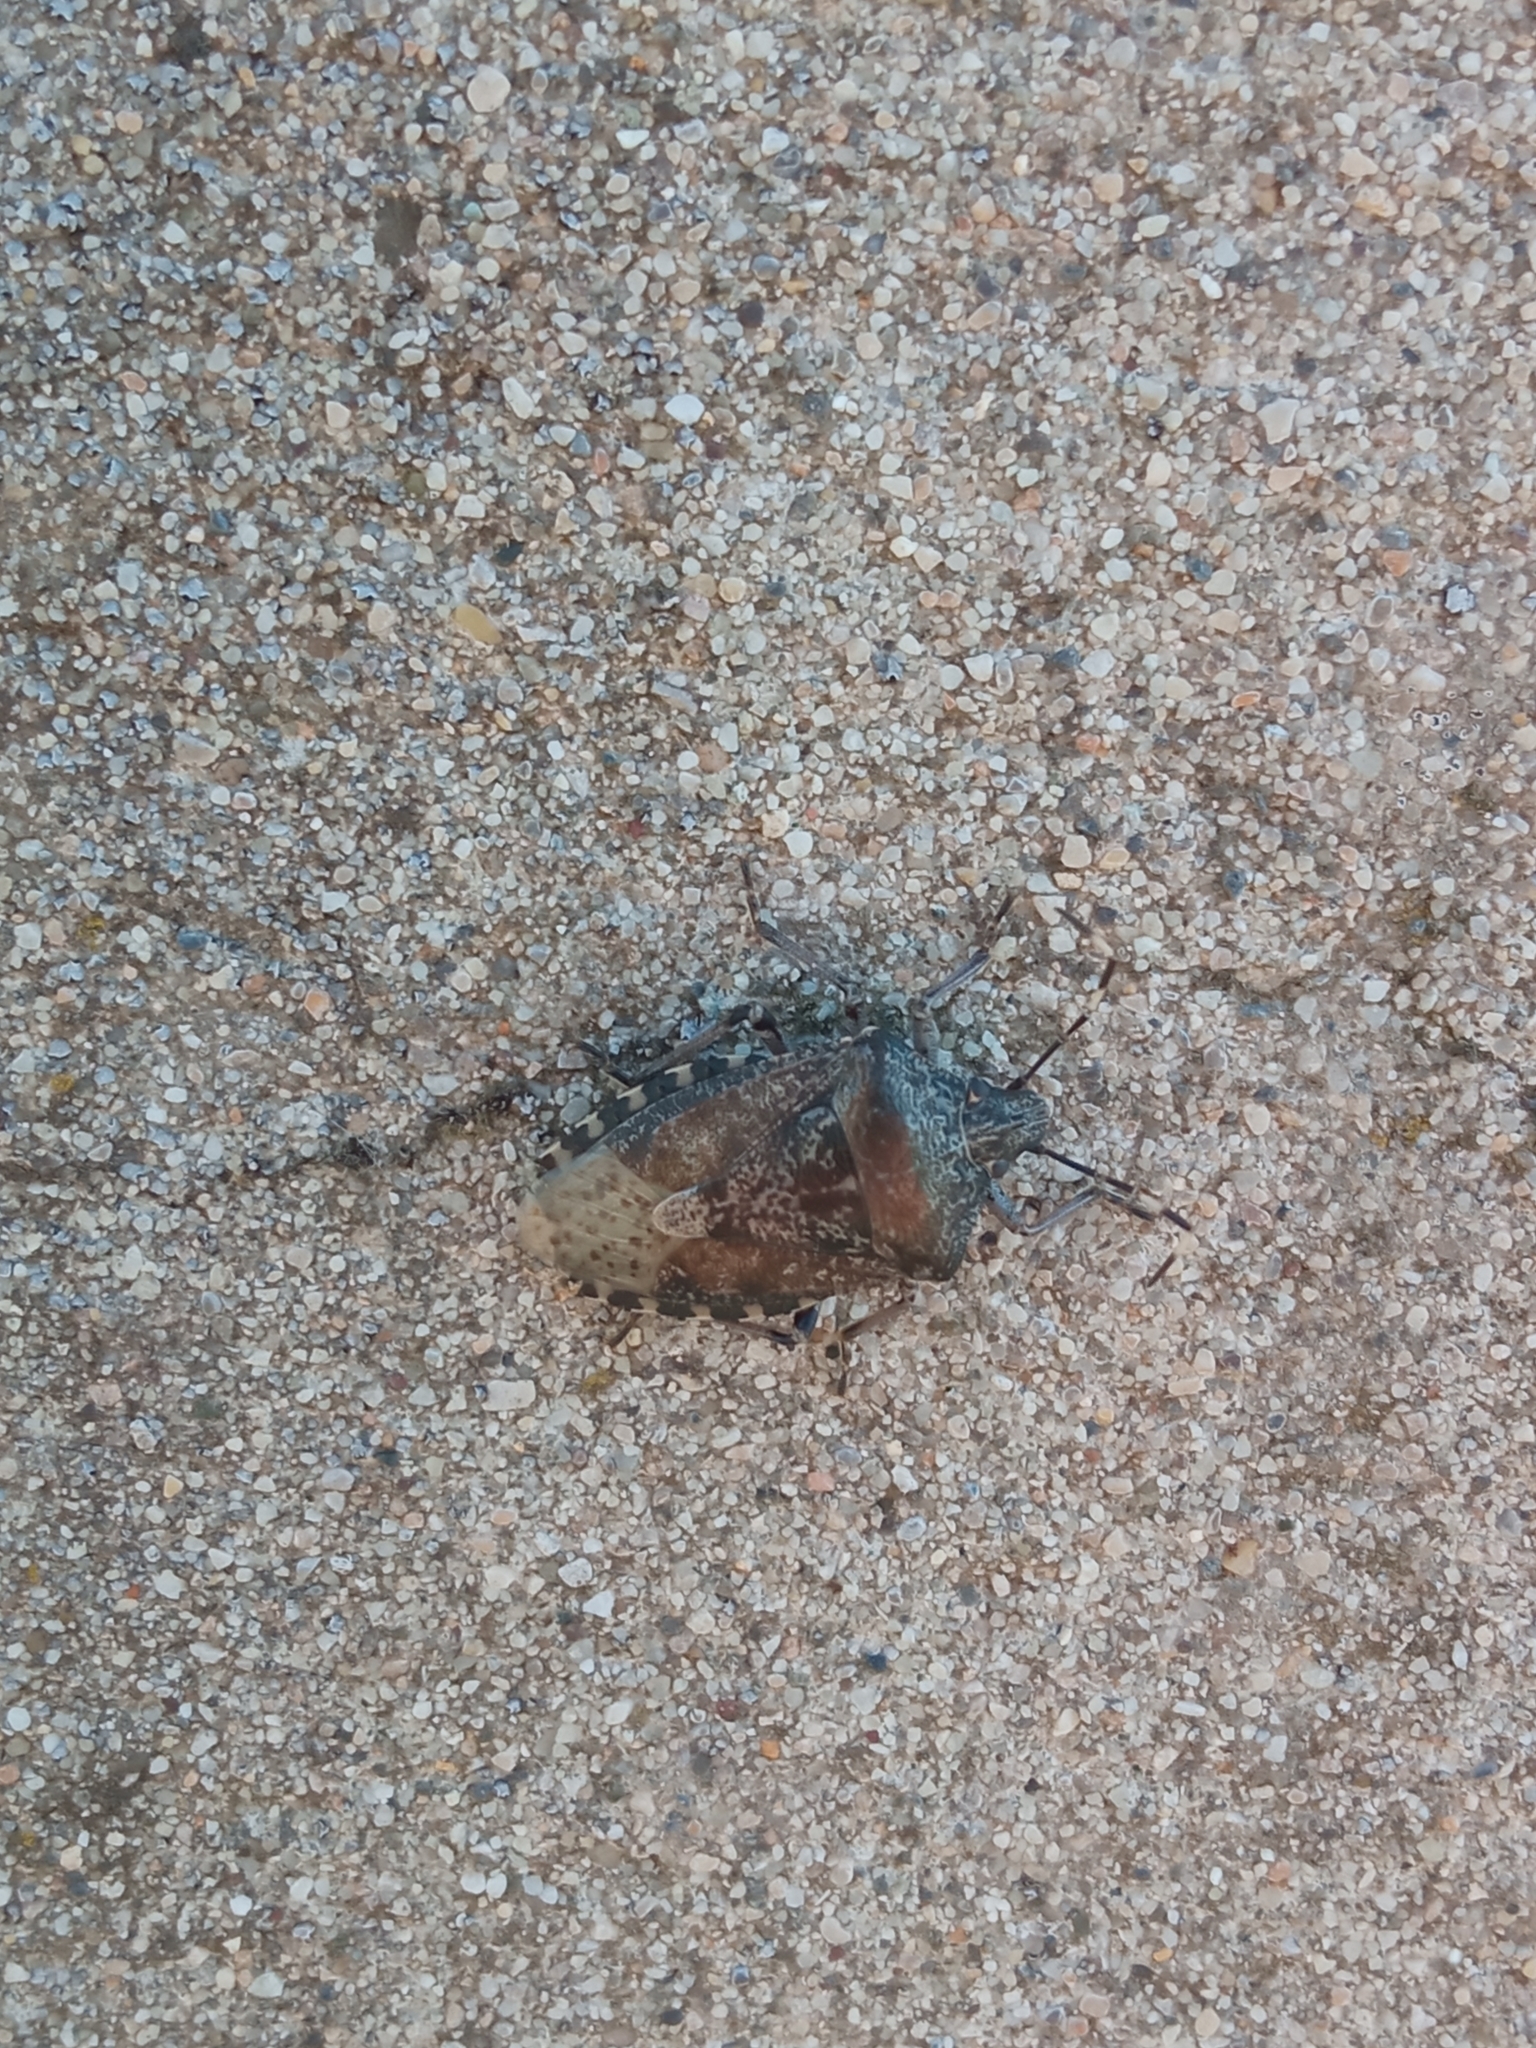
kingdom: Animalia
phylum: Arthropoda
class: Insecta
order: Hemiptera
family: Pentatomidae
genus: Rhaphigaster
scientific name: Rhaphigaster nebulosa
